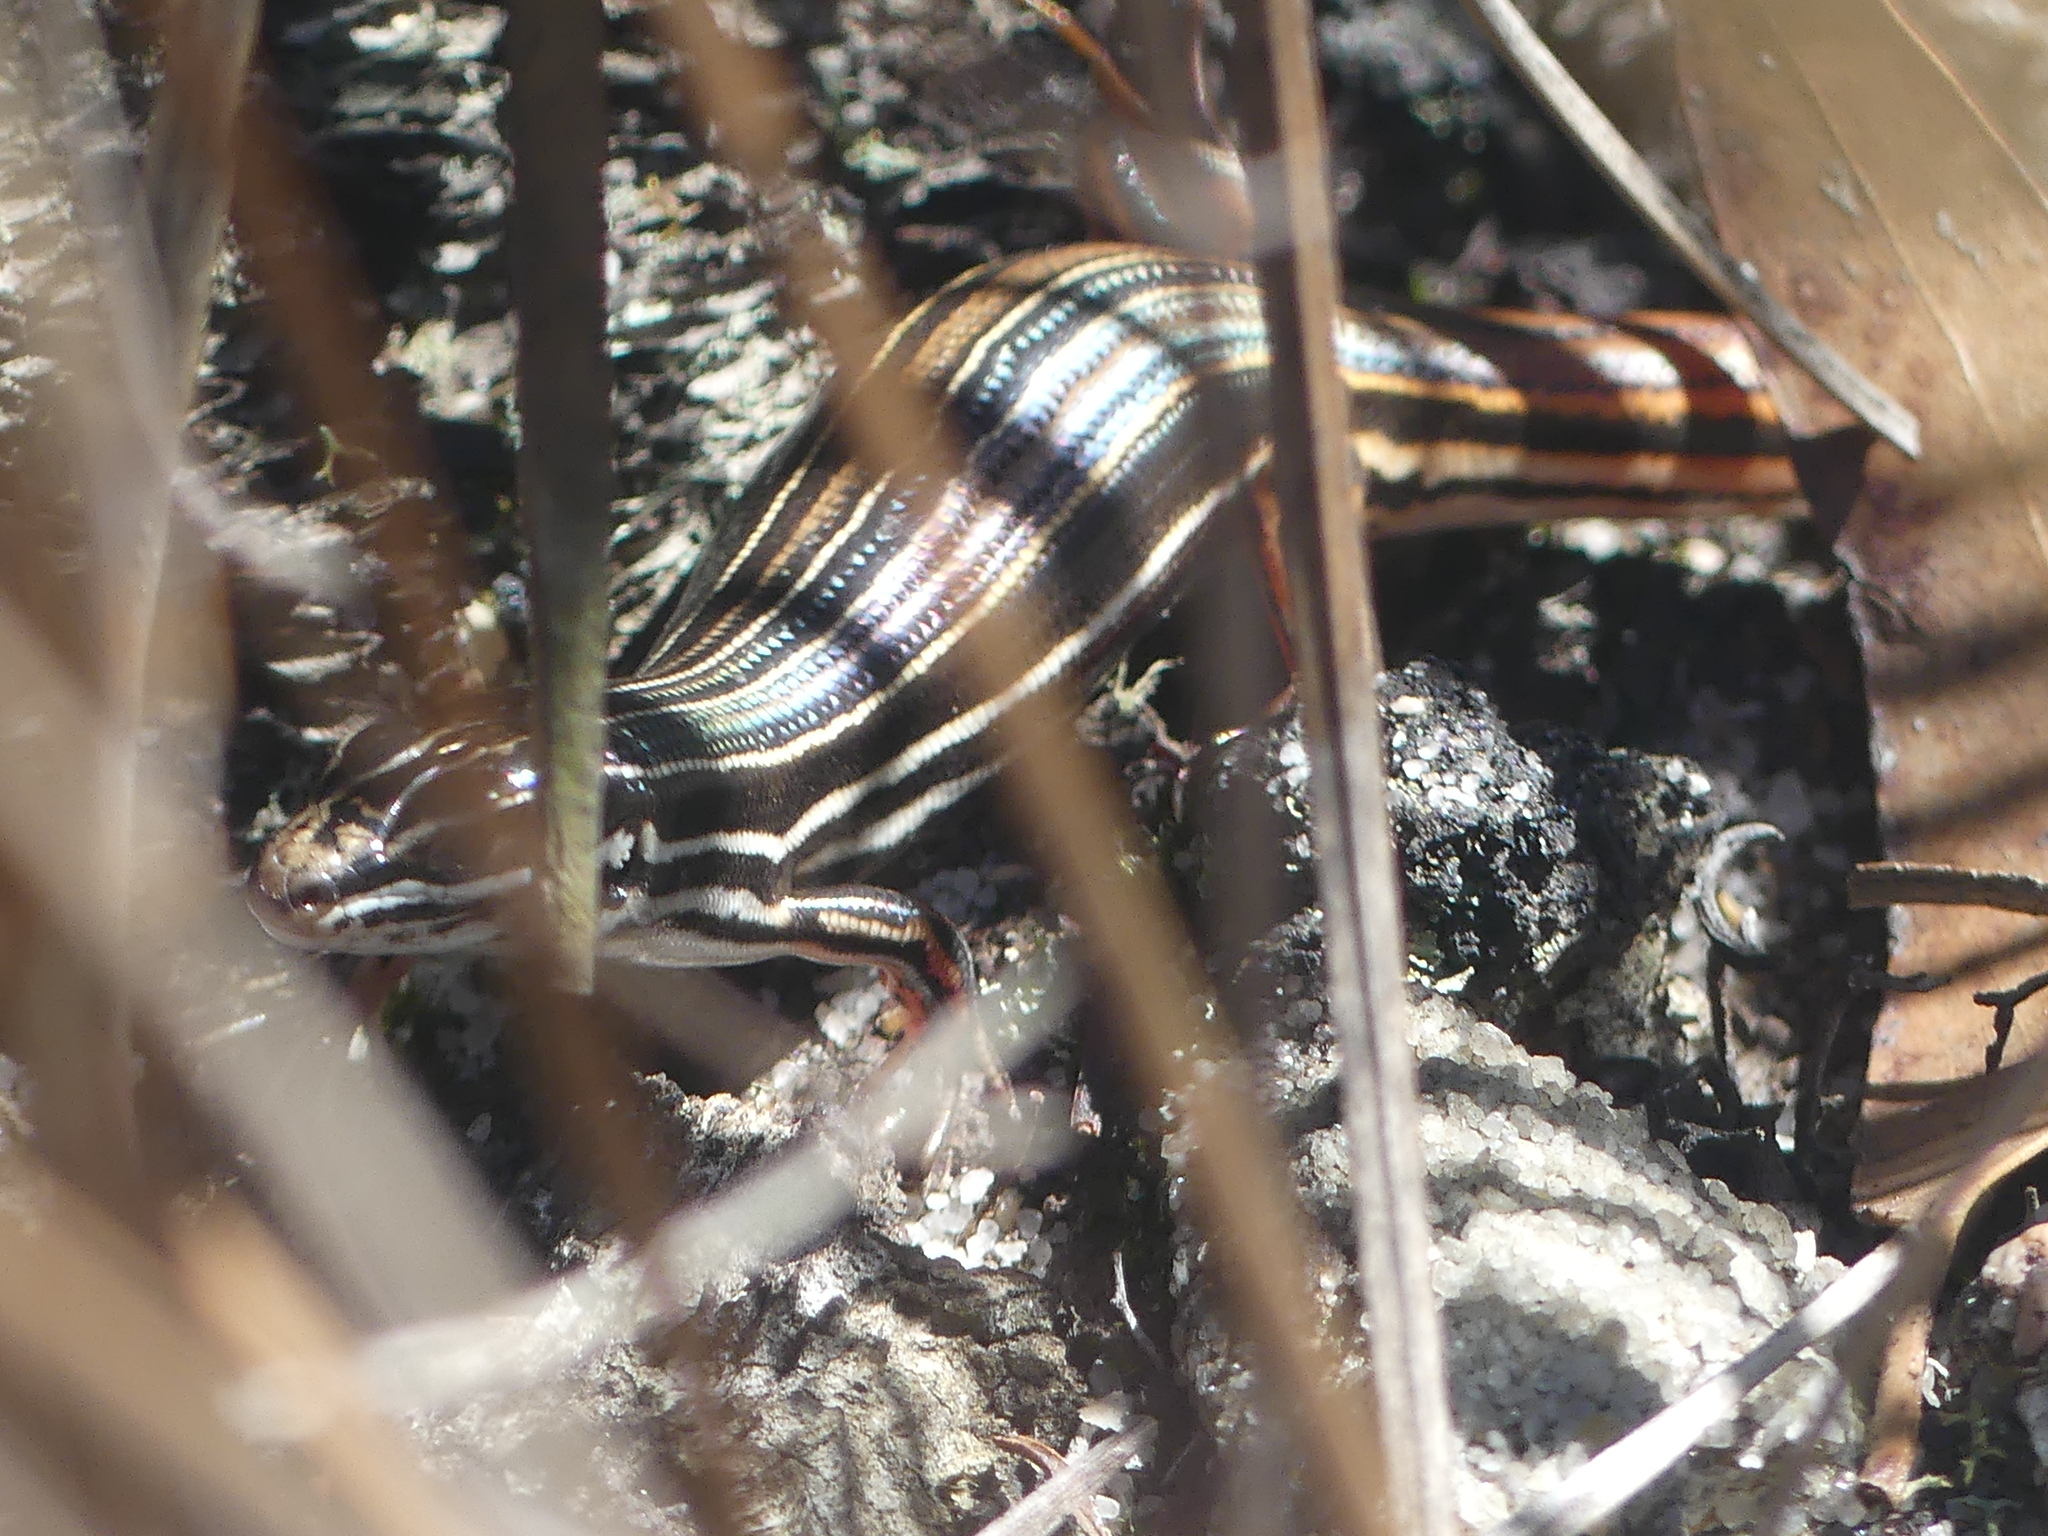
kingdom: Animalia
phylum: Chordata
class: Squamata
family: Scincidae
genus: Ctenotus
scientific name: Ctenotus taeniolatus
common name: Copper-tailed skink
